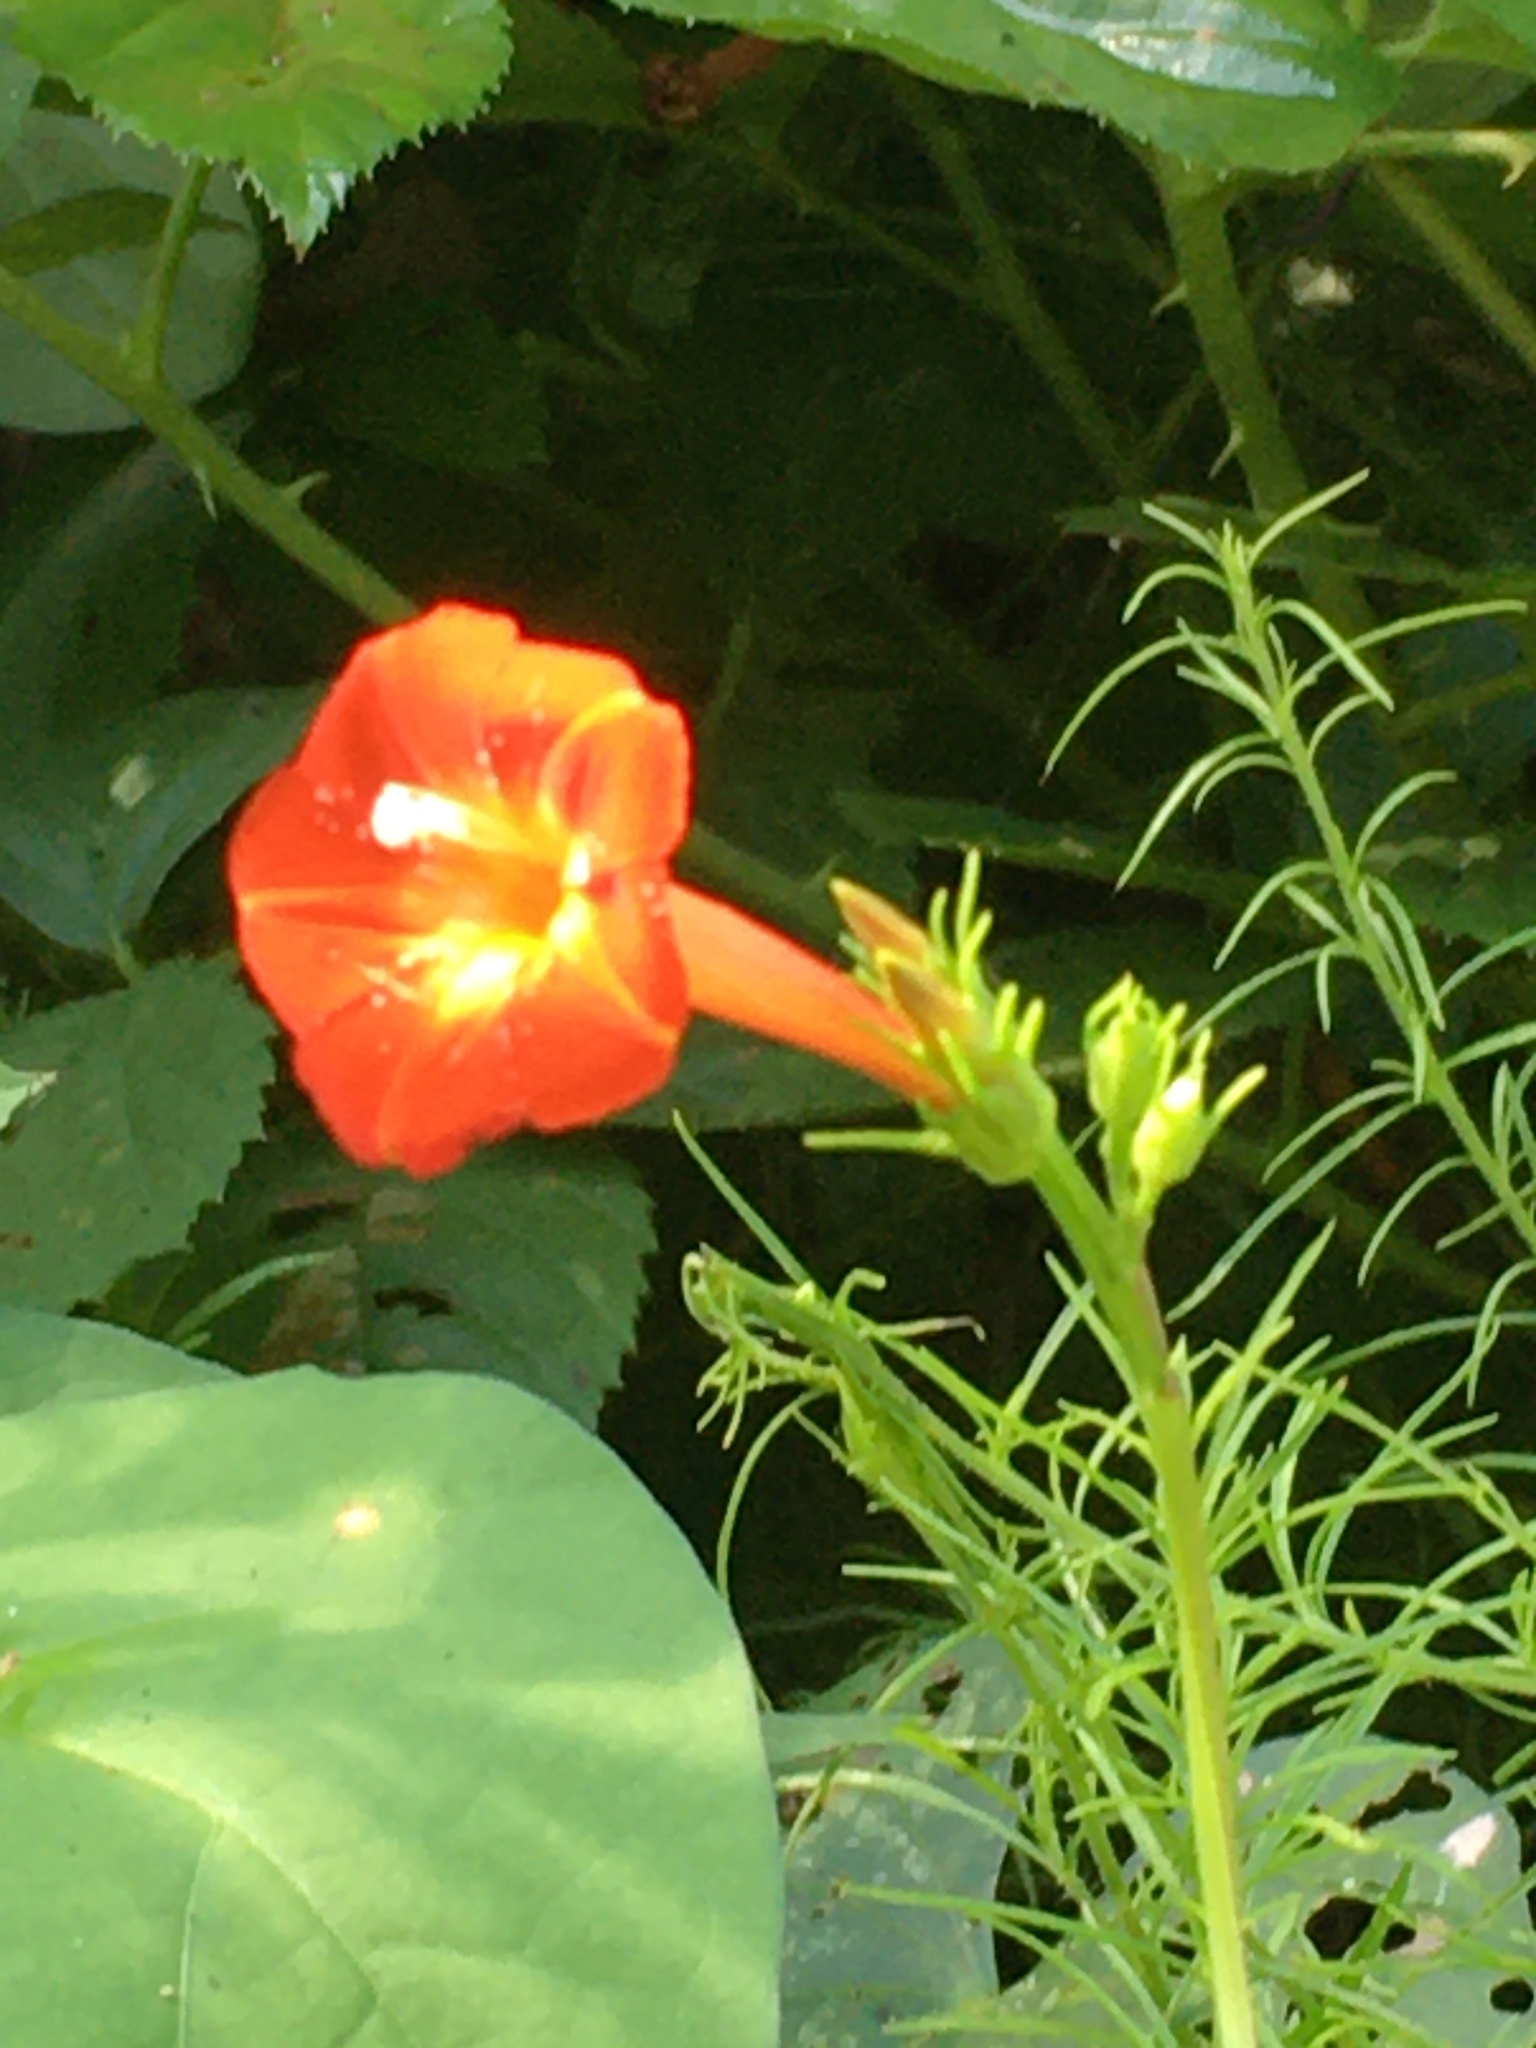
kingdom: Plantae
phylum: Tracheophyta
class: Magnoliopsida
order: Solanales
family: Convolvulaceae
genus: Ipomoea
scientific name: Ipomoea coccinea
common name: Red morning-glory
